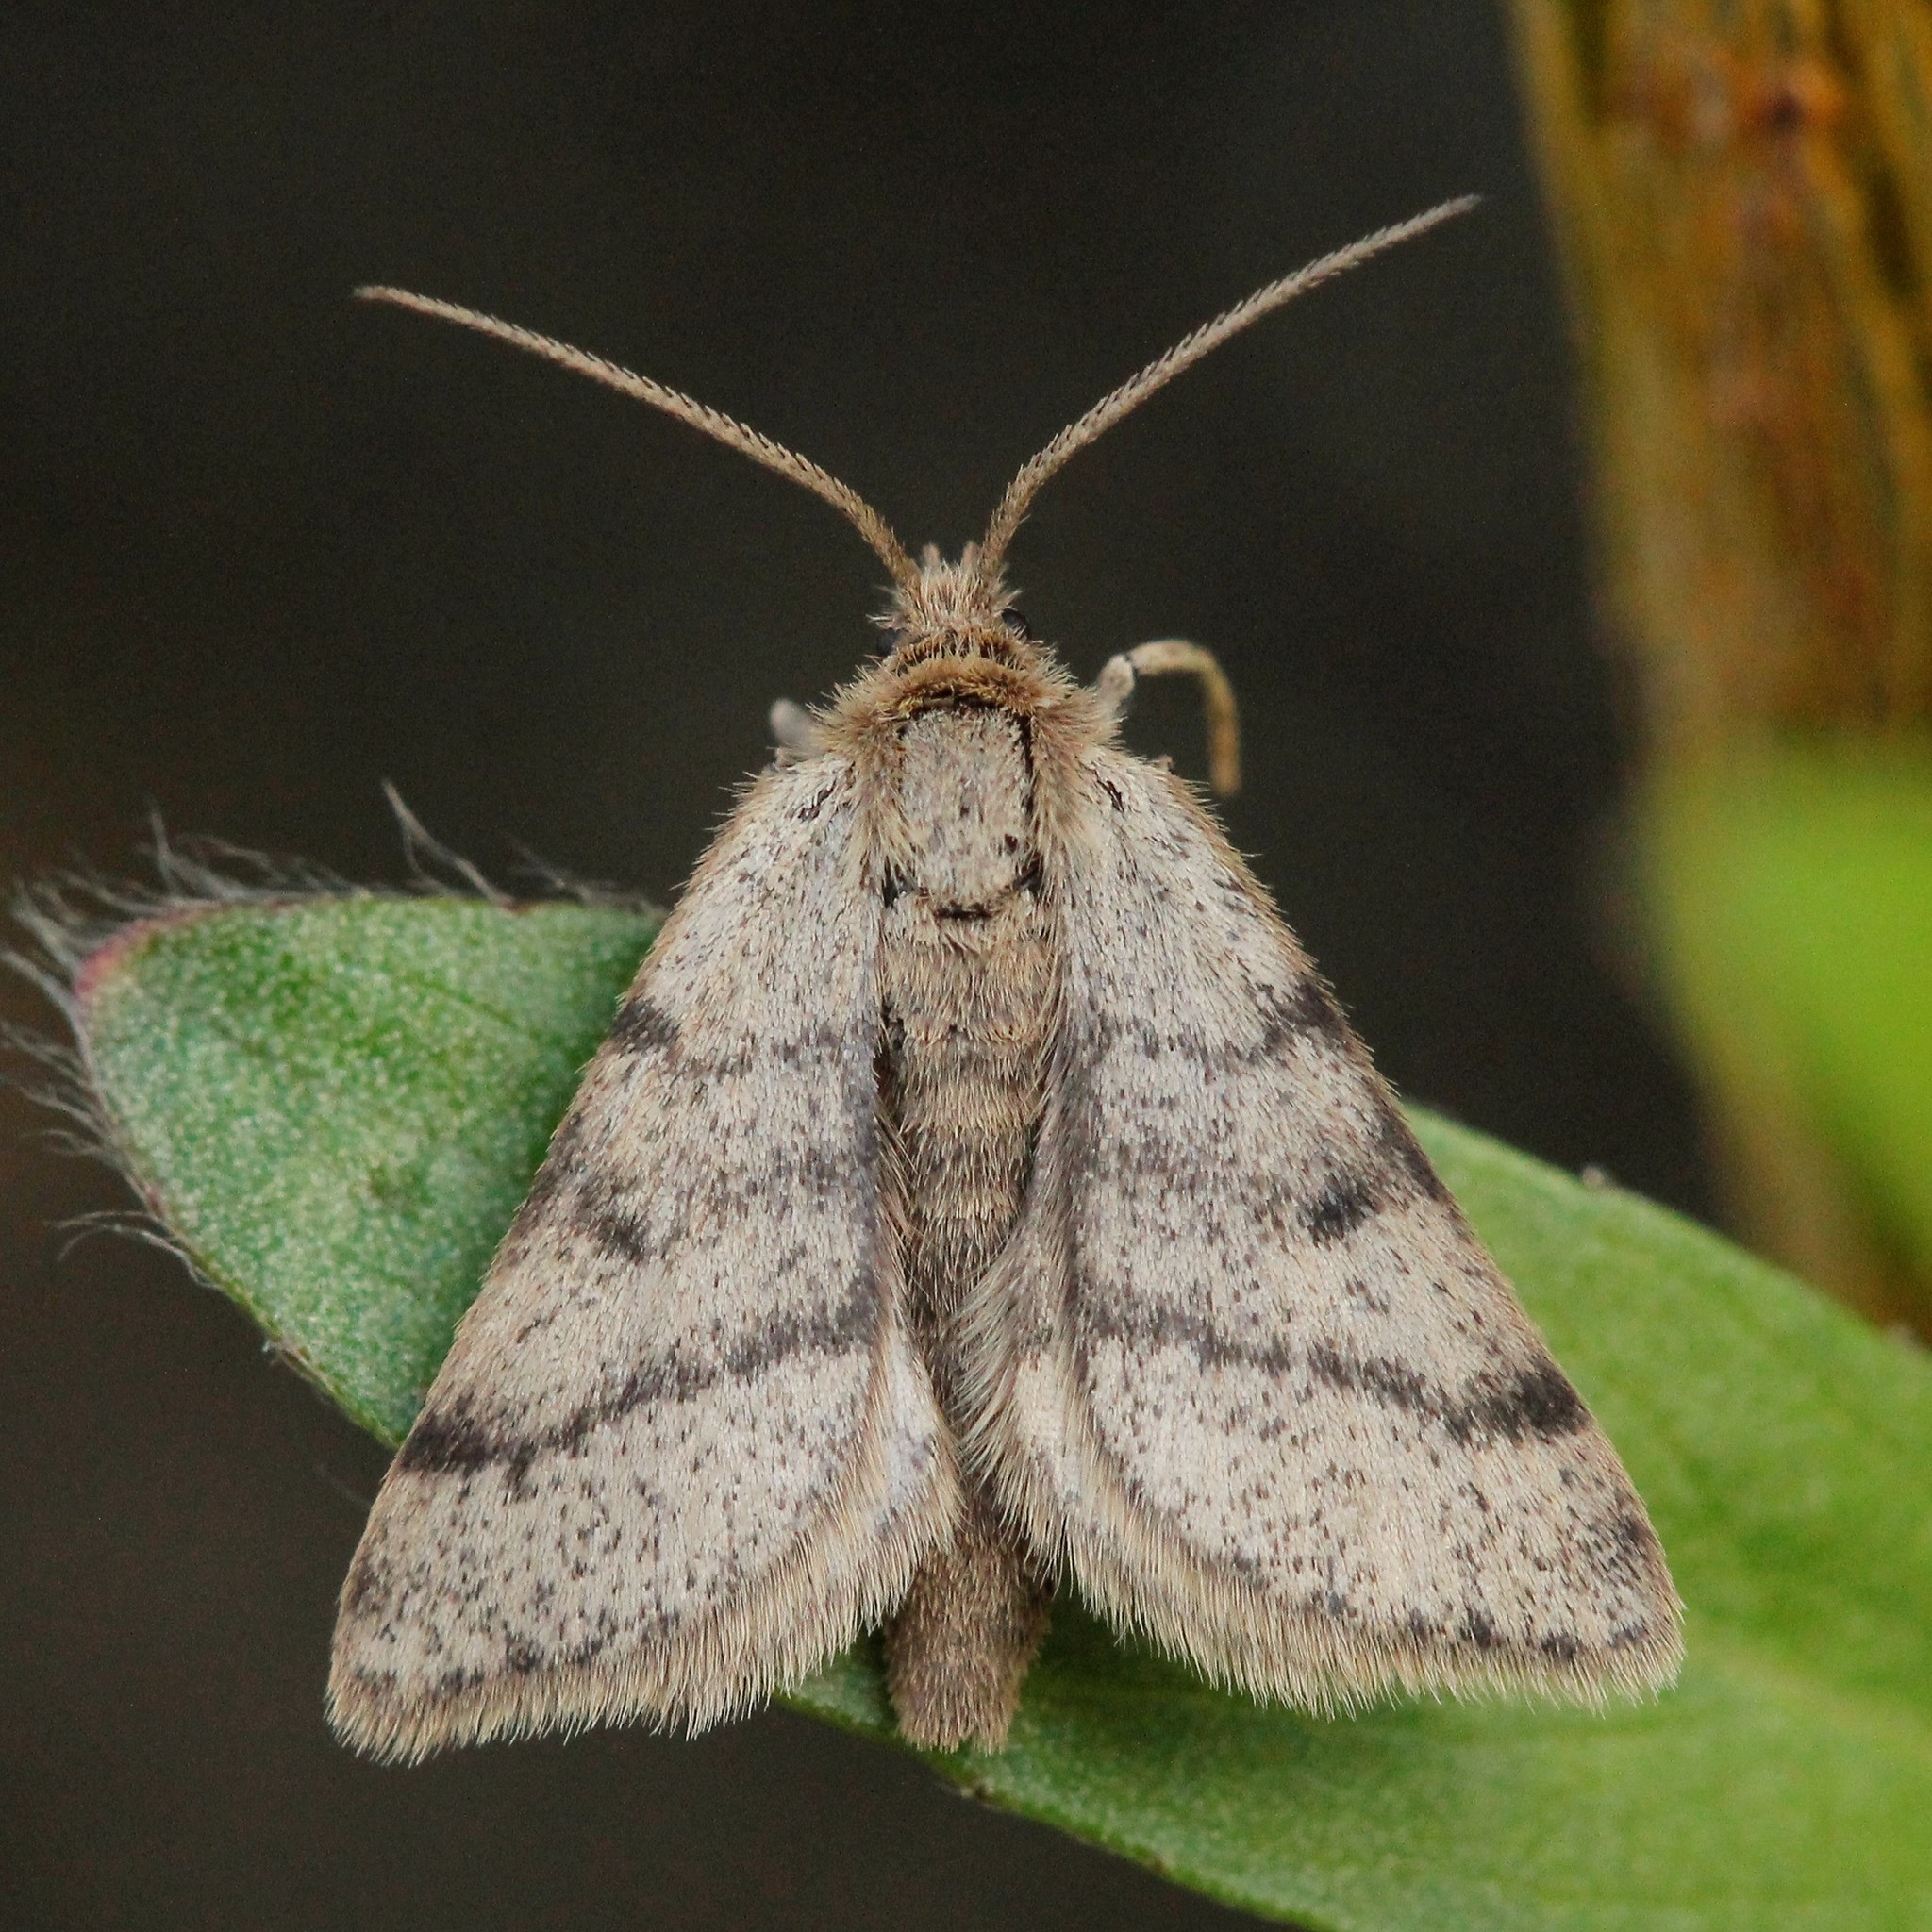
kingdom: Animalia
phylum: Arthropoda
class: Insecta
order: Lepidoptera
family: Geometridae
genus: Macaria
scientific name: Macaria fusca
